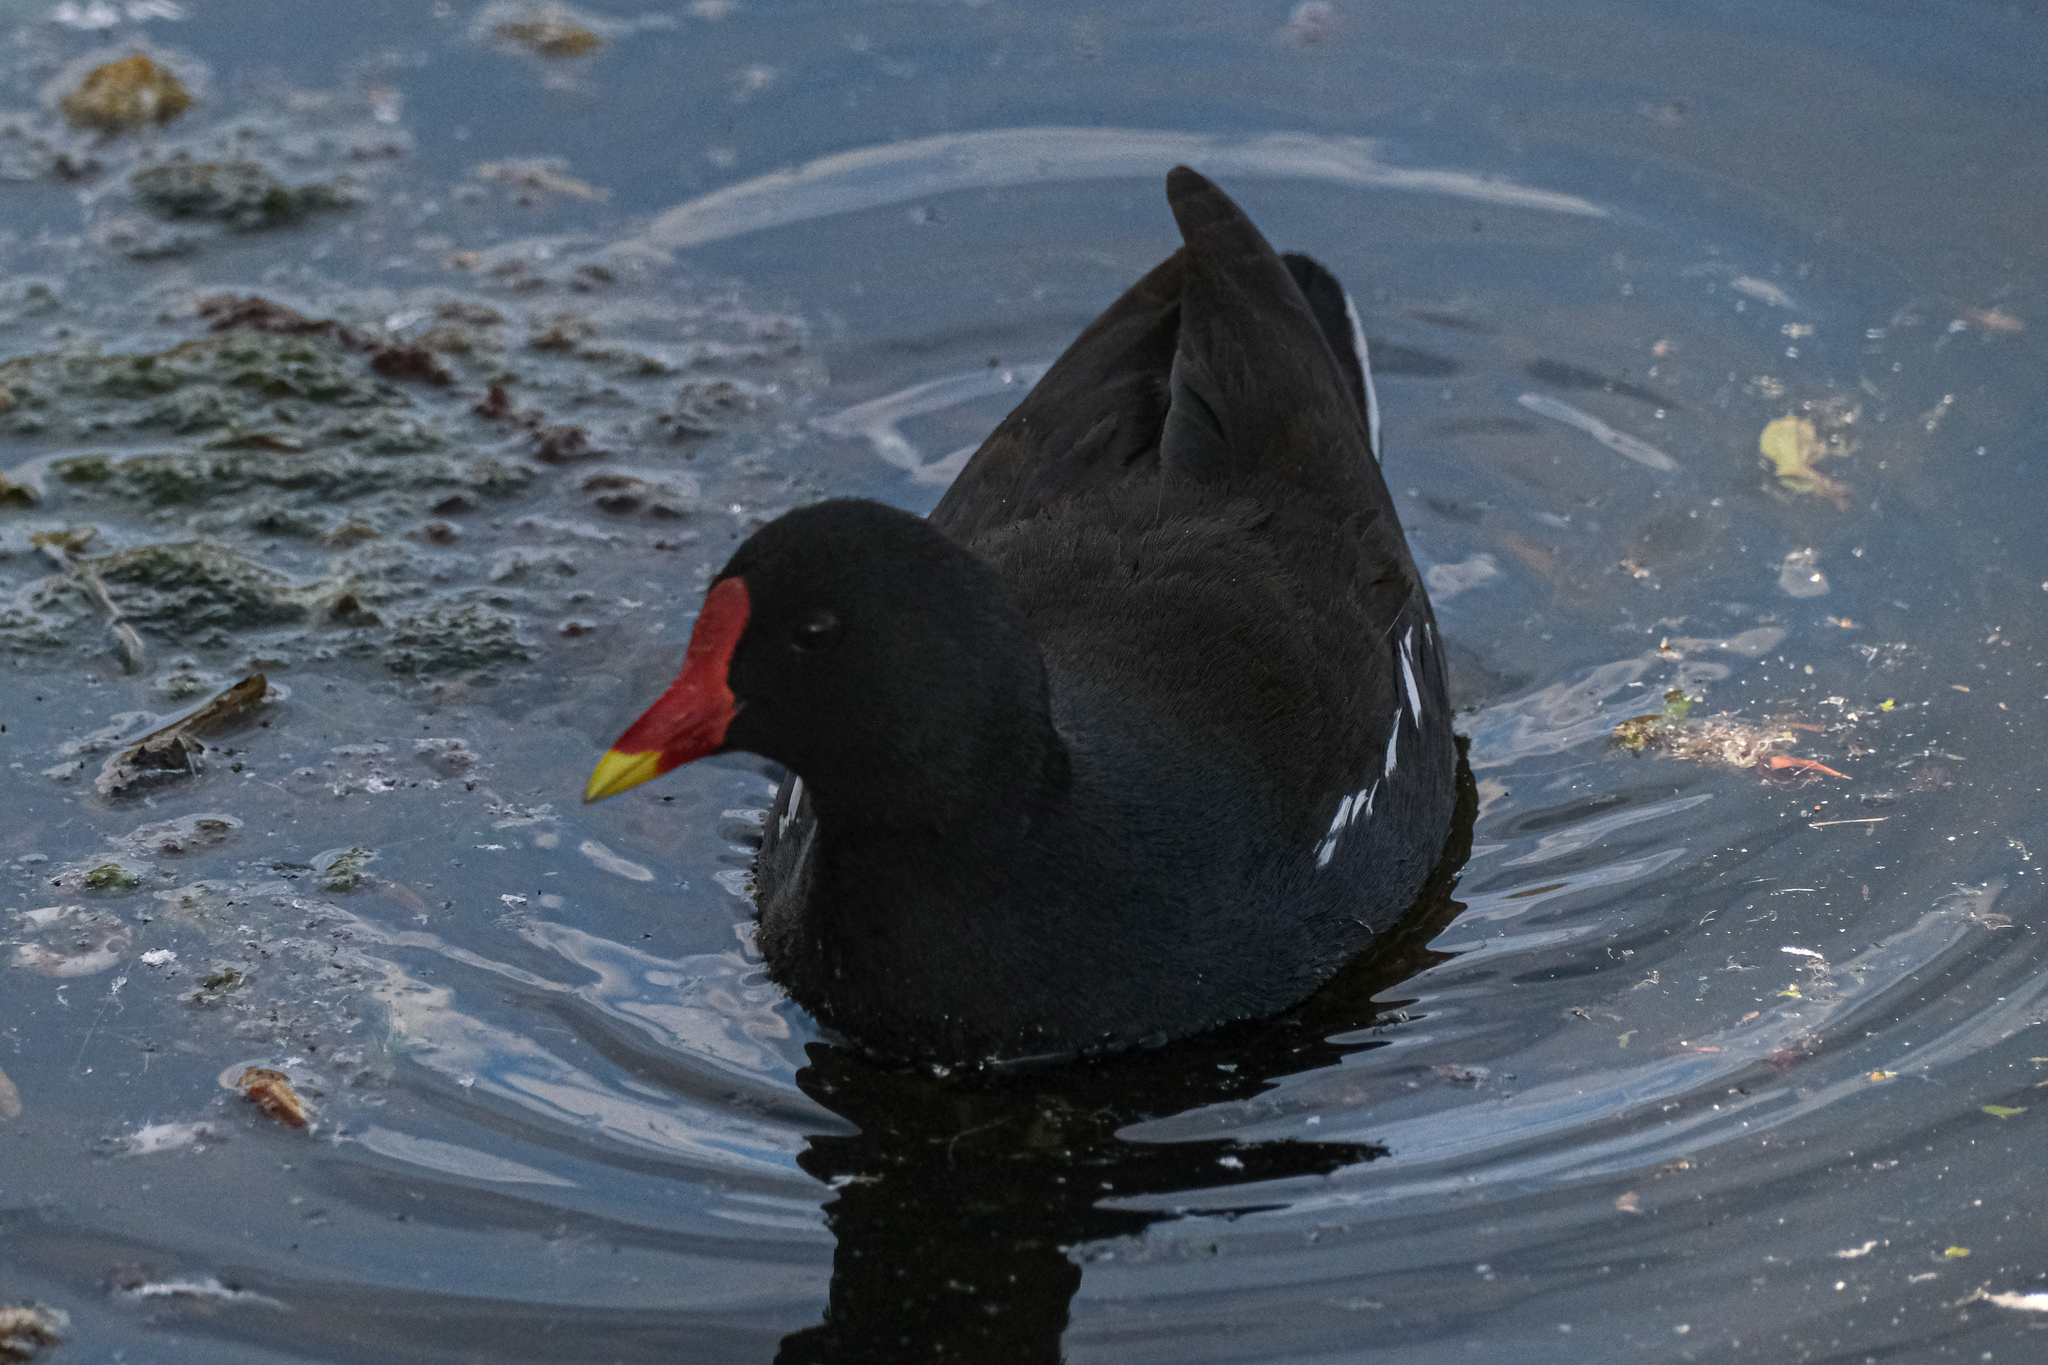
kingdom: Animalia
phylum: Chordata
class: Aves
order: Gruiformes
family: Rallidae
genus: Gallinula
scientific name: Gallinula chloropus
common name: Common moorhen
